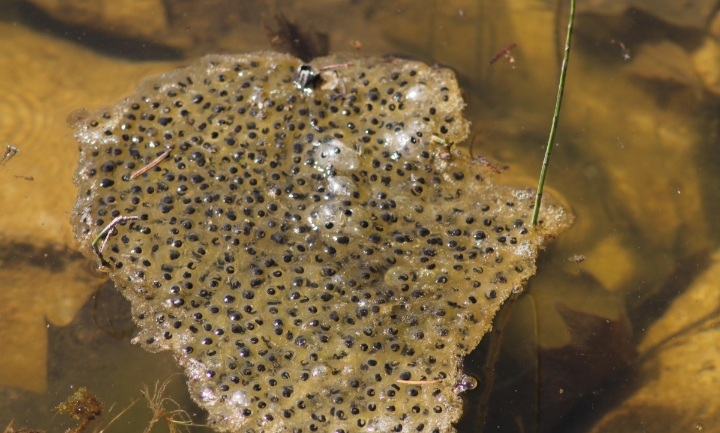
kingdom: Animalia
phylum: Chordata
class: Amphibia
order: Anura
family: Ranidae
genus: Rana
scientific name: Rana dalmatina
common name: Agile frog
